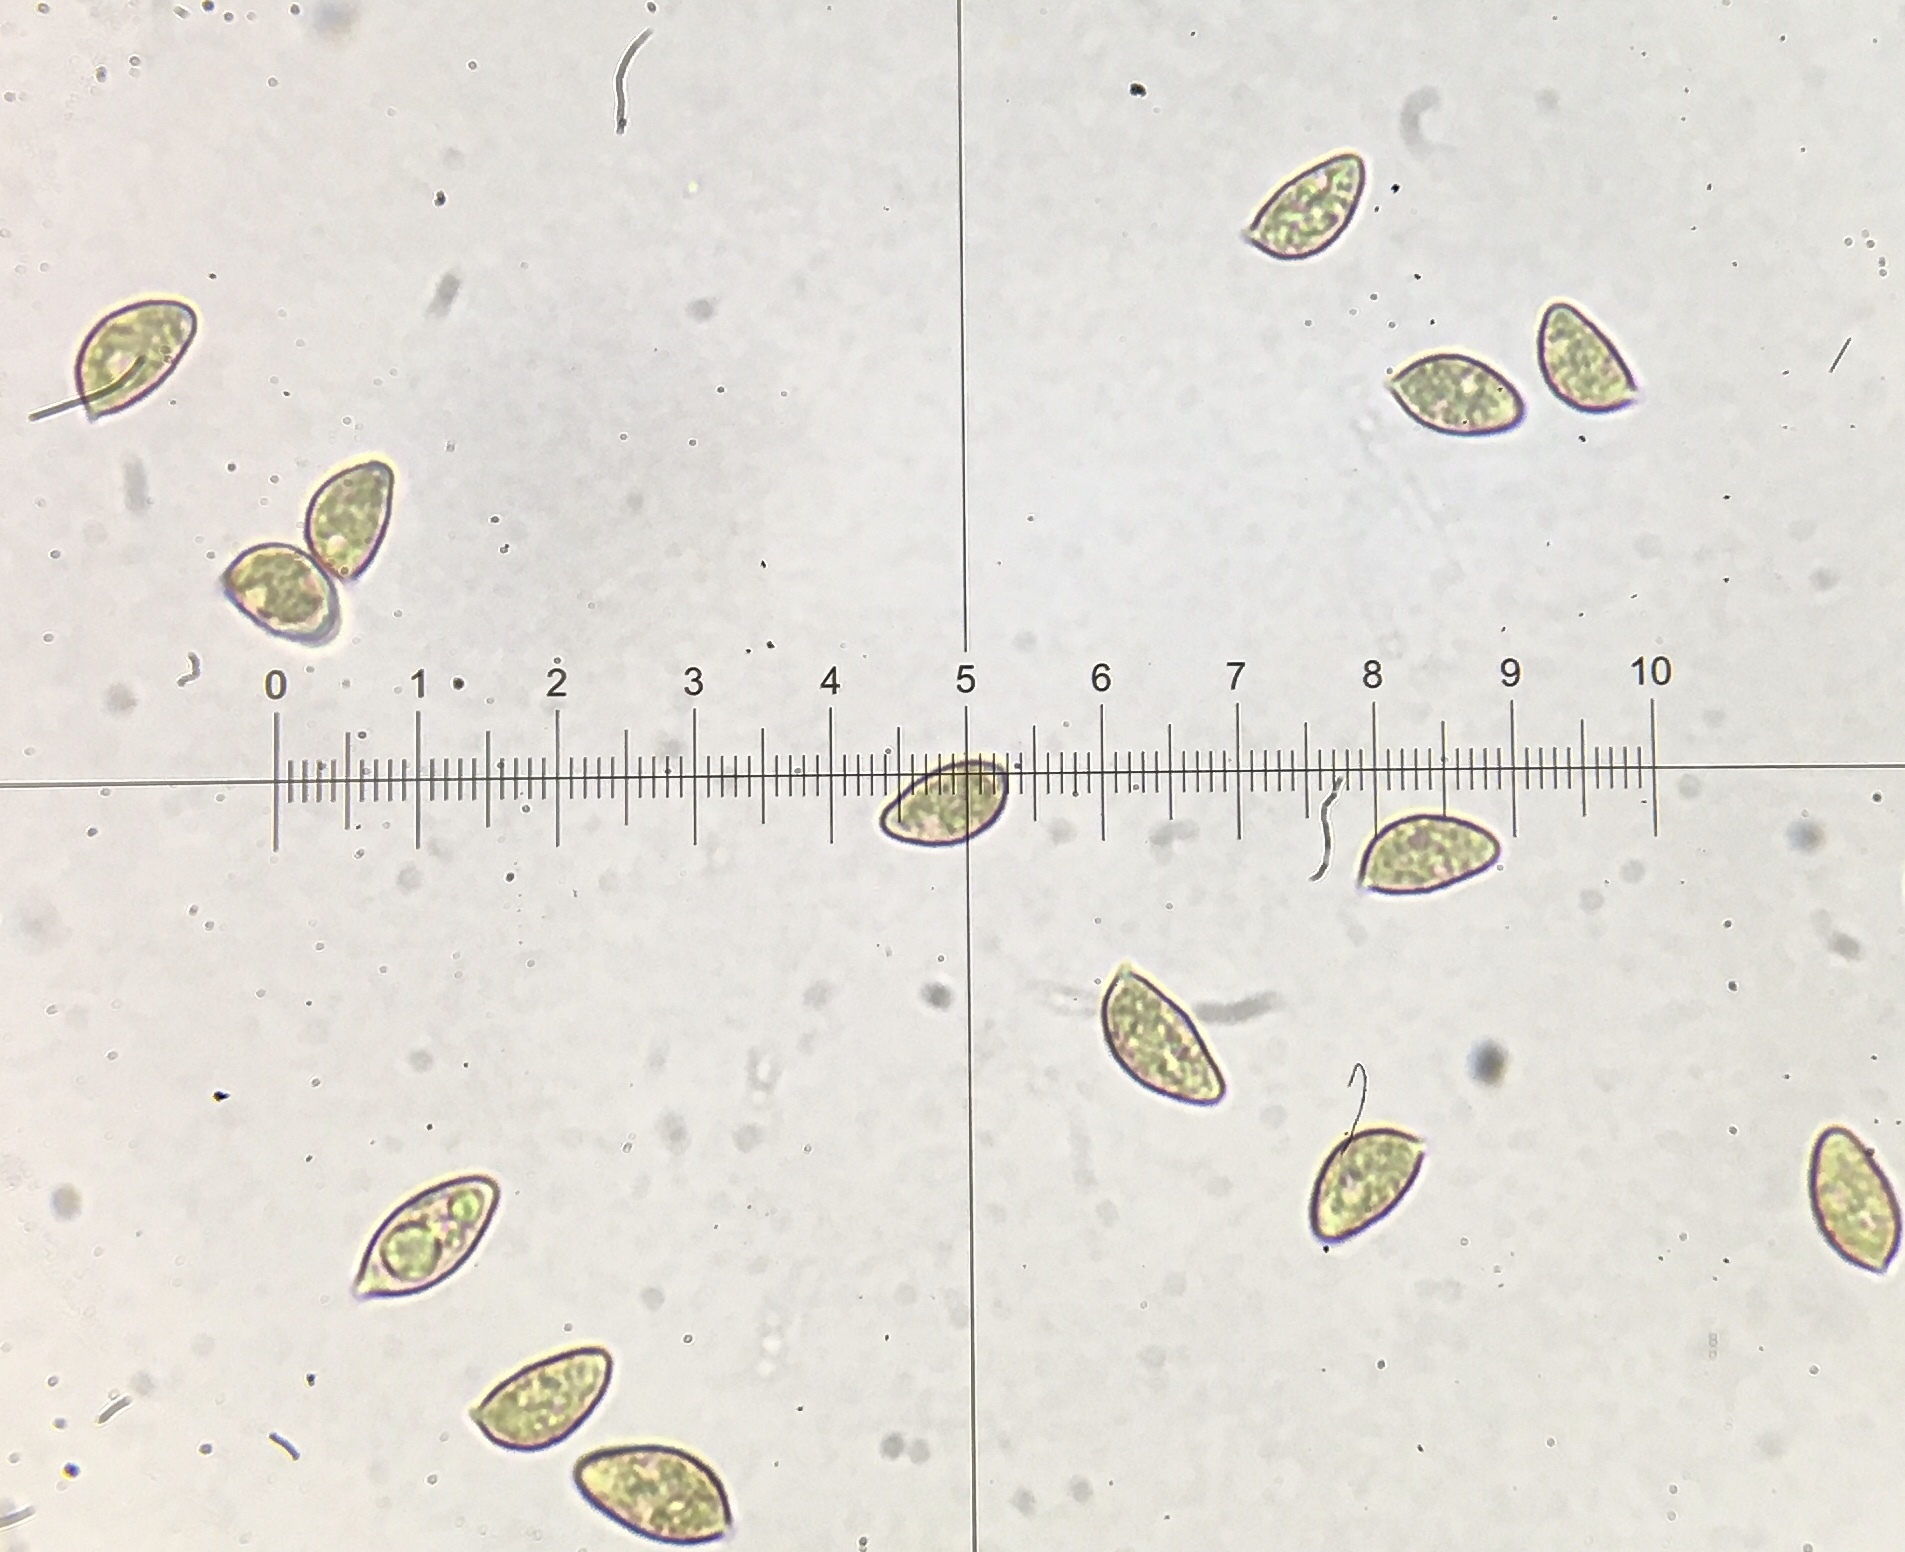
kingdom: Fungi
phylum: Basidiomycota
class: Agaricomycetes
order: Agaricales
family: Hymenogastraceae
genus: Hebeloma
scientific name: Hebeloma ischnostylum
